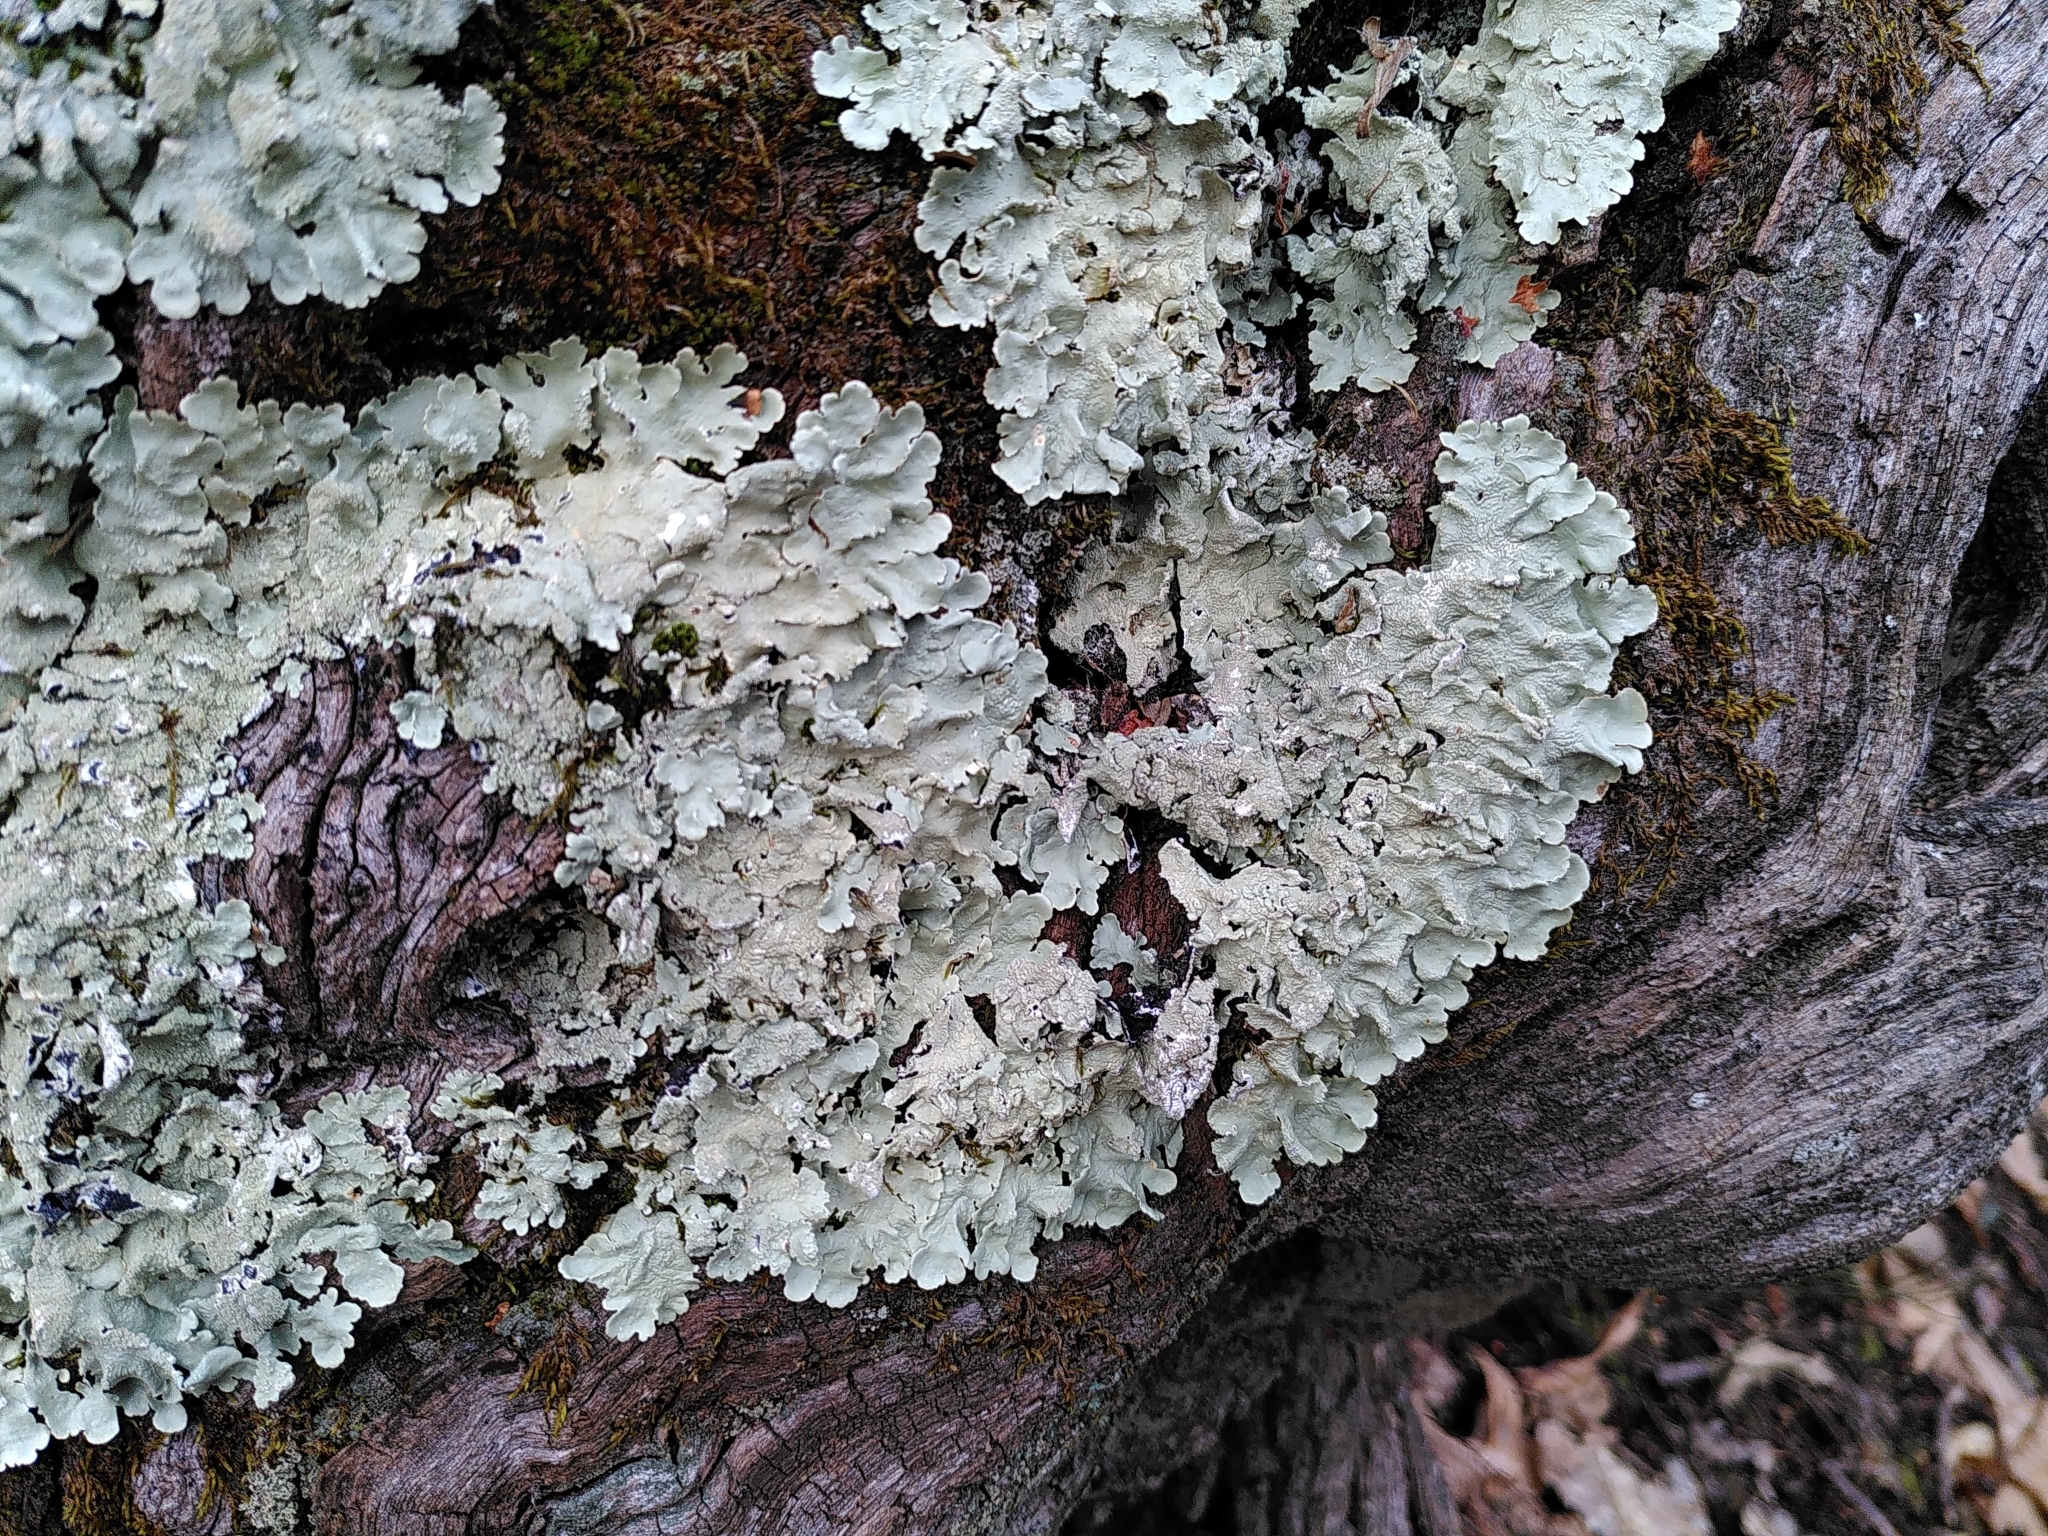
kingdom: Fungi
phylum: Ascomycota
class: Lecanoromycetes
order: Lecanorales
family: Parmeliaceae
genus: Flavoparmelia
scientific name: Flavoparmelia caperata
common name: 40-mile per hour lichen
